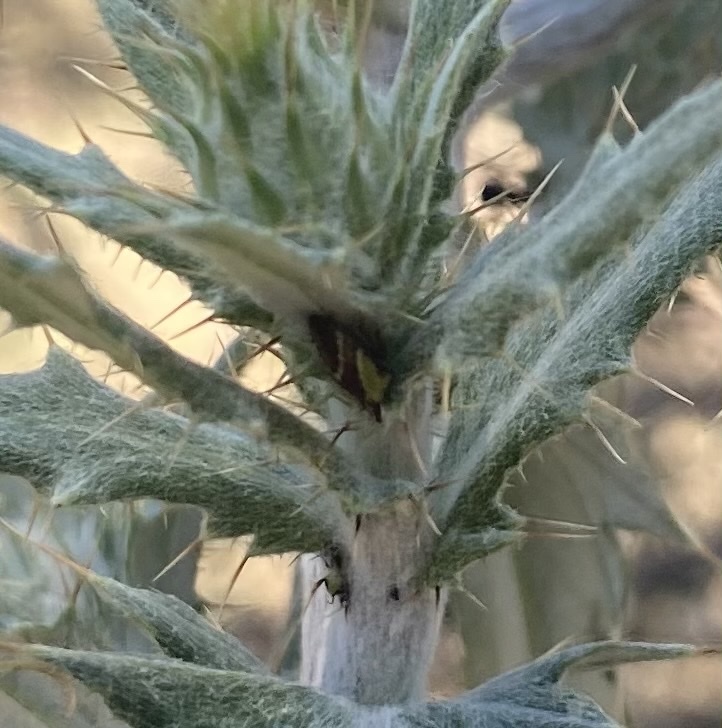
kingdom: Animalia
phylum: Arthropoda
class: Insecta
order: Hemiptera
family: Membracidae
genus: Publilia
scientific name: Publilia porrecta
